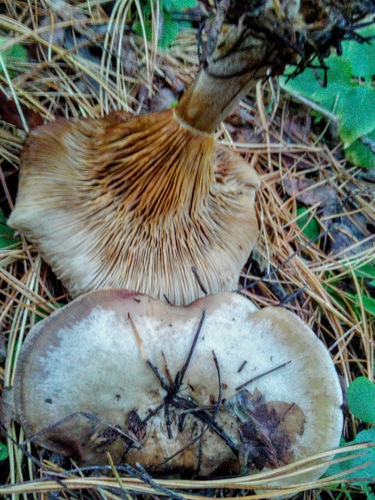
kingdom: Fungi
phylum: Basidiomycota
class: Agaricomycetes
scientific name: Agaricomycetes
